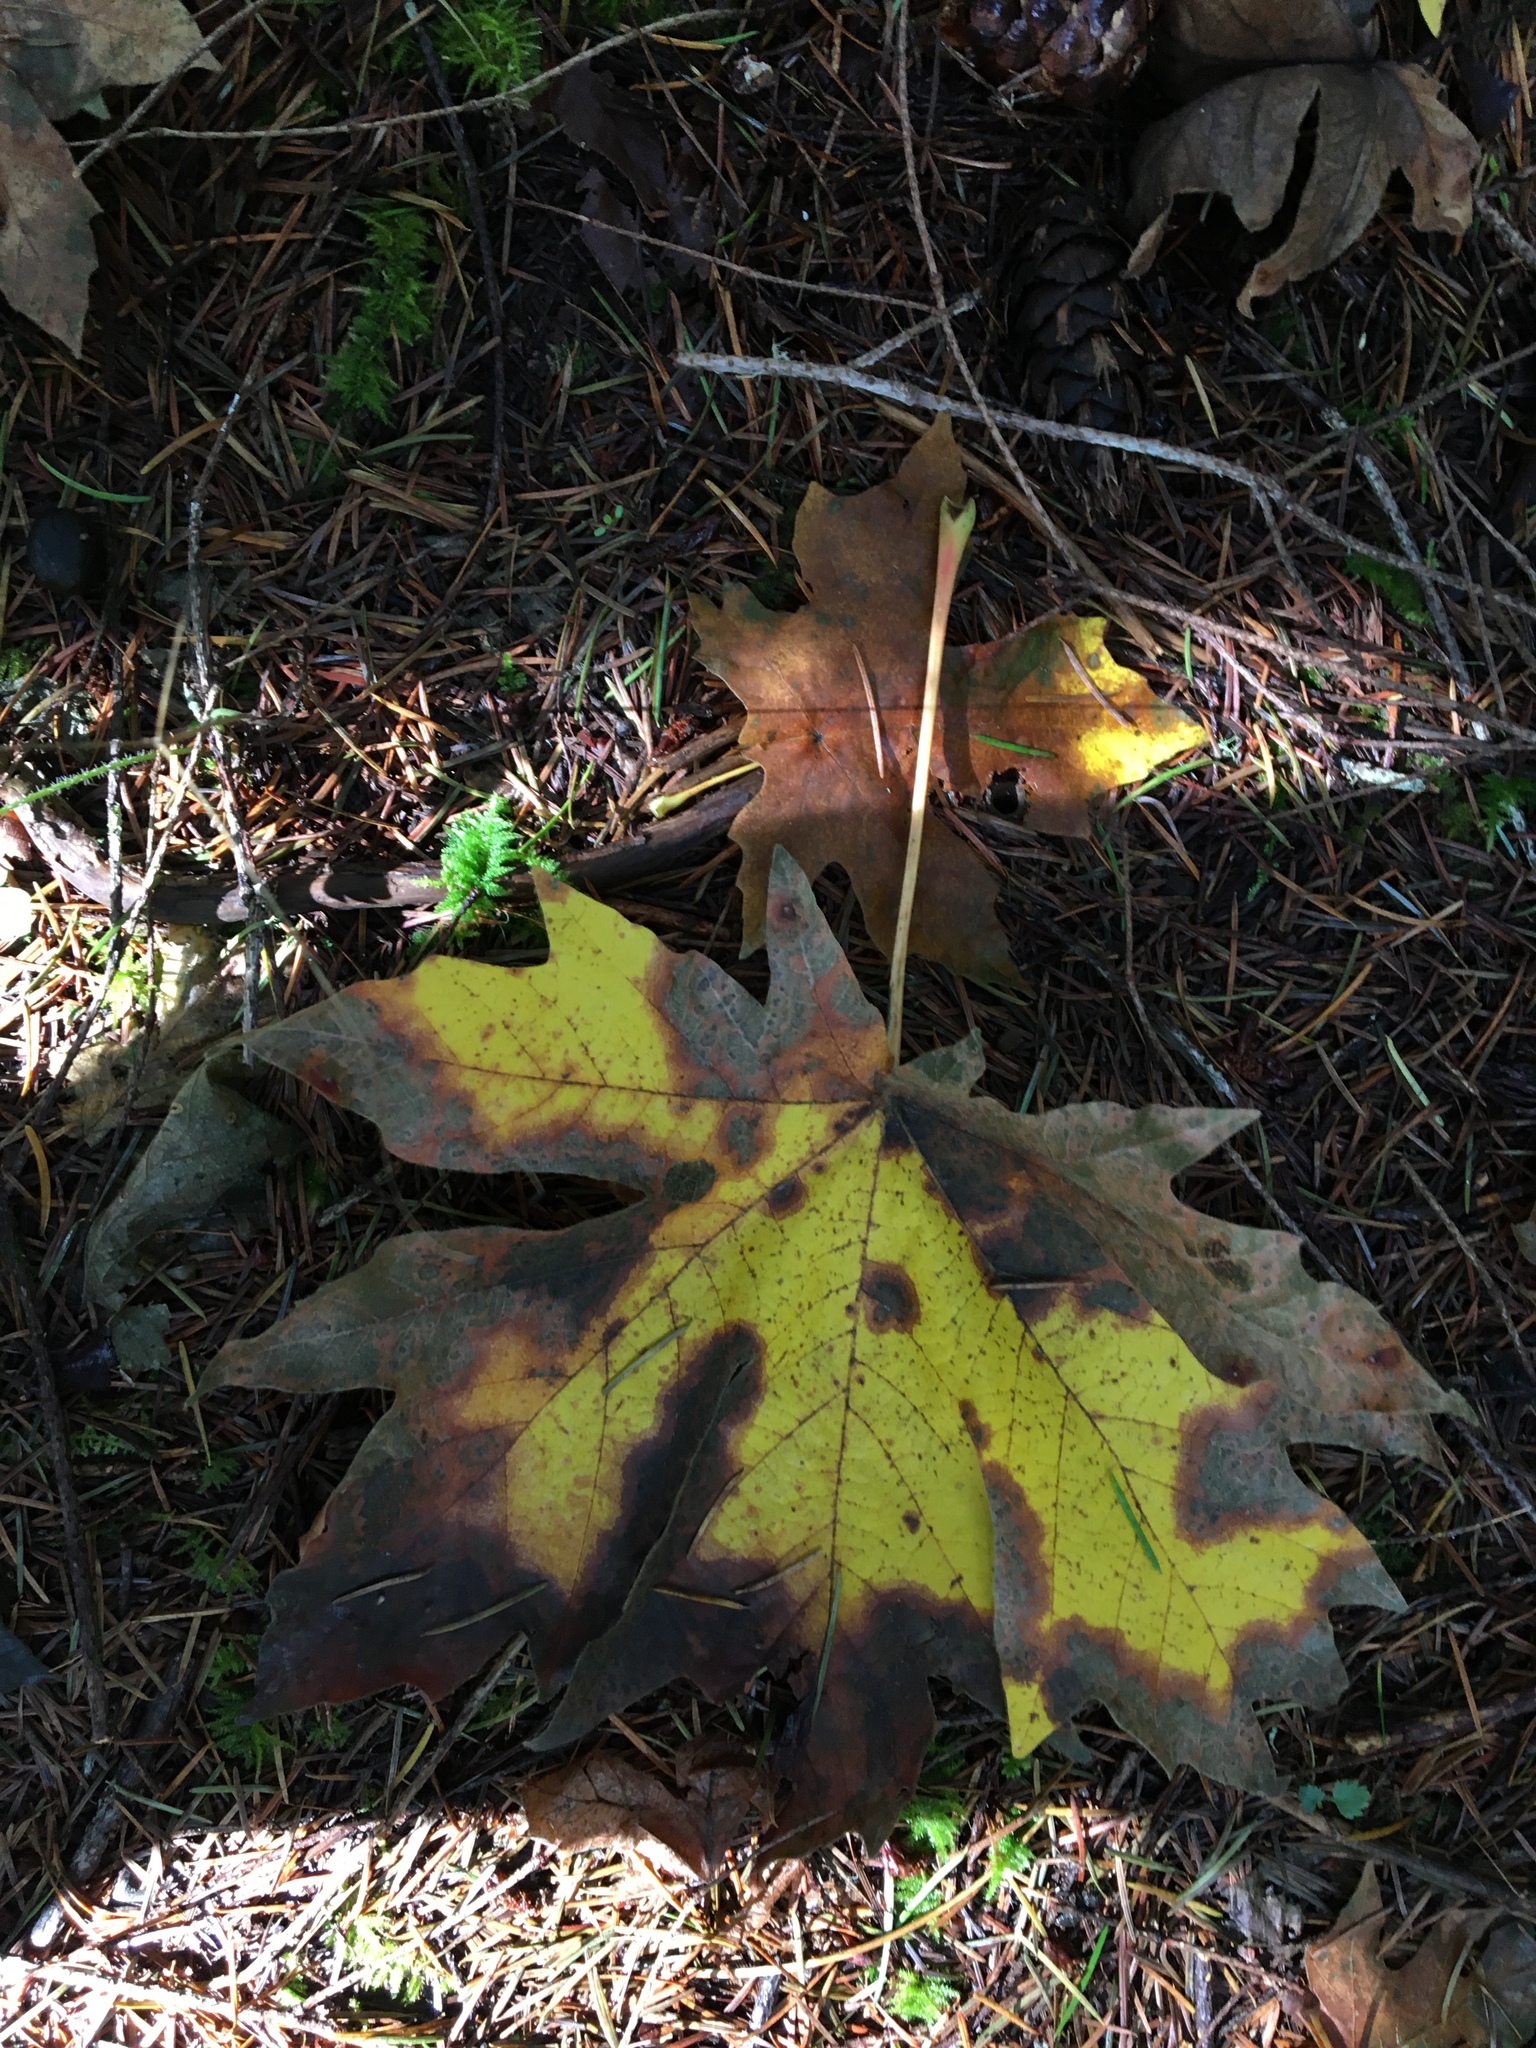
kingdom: Plantae
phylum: Tracheophyta
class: Magnoliopsida
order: Sapindales
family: Sapindaceae
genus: Acer
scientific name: Acer macrophyllum
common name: Oregon maple
